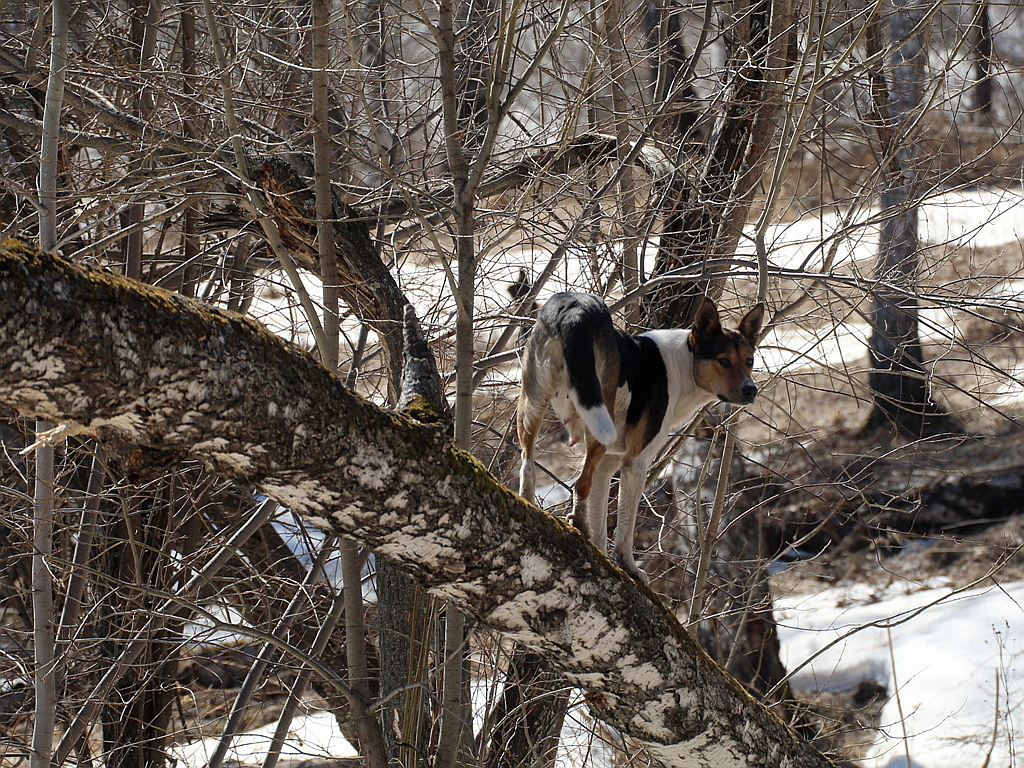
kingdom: Animalia
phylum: Chordata
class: Mammalia
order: Carnivora
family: Canidae
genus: Canis
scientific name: Canis lupus
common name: Gray wolf
